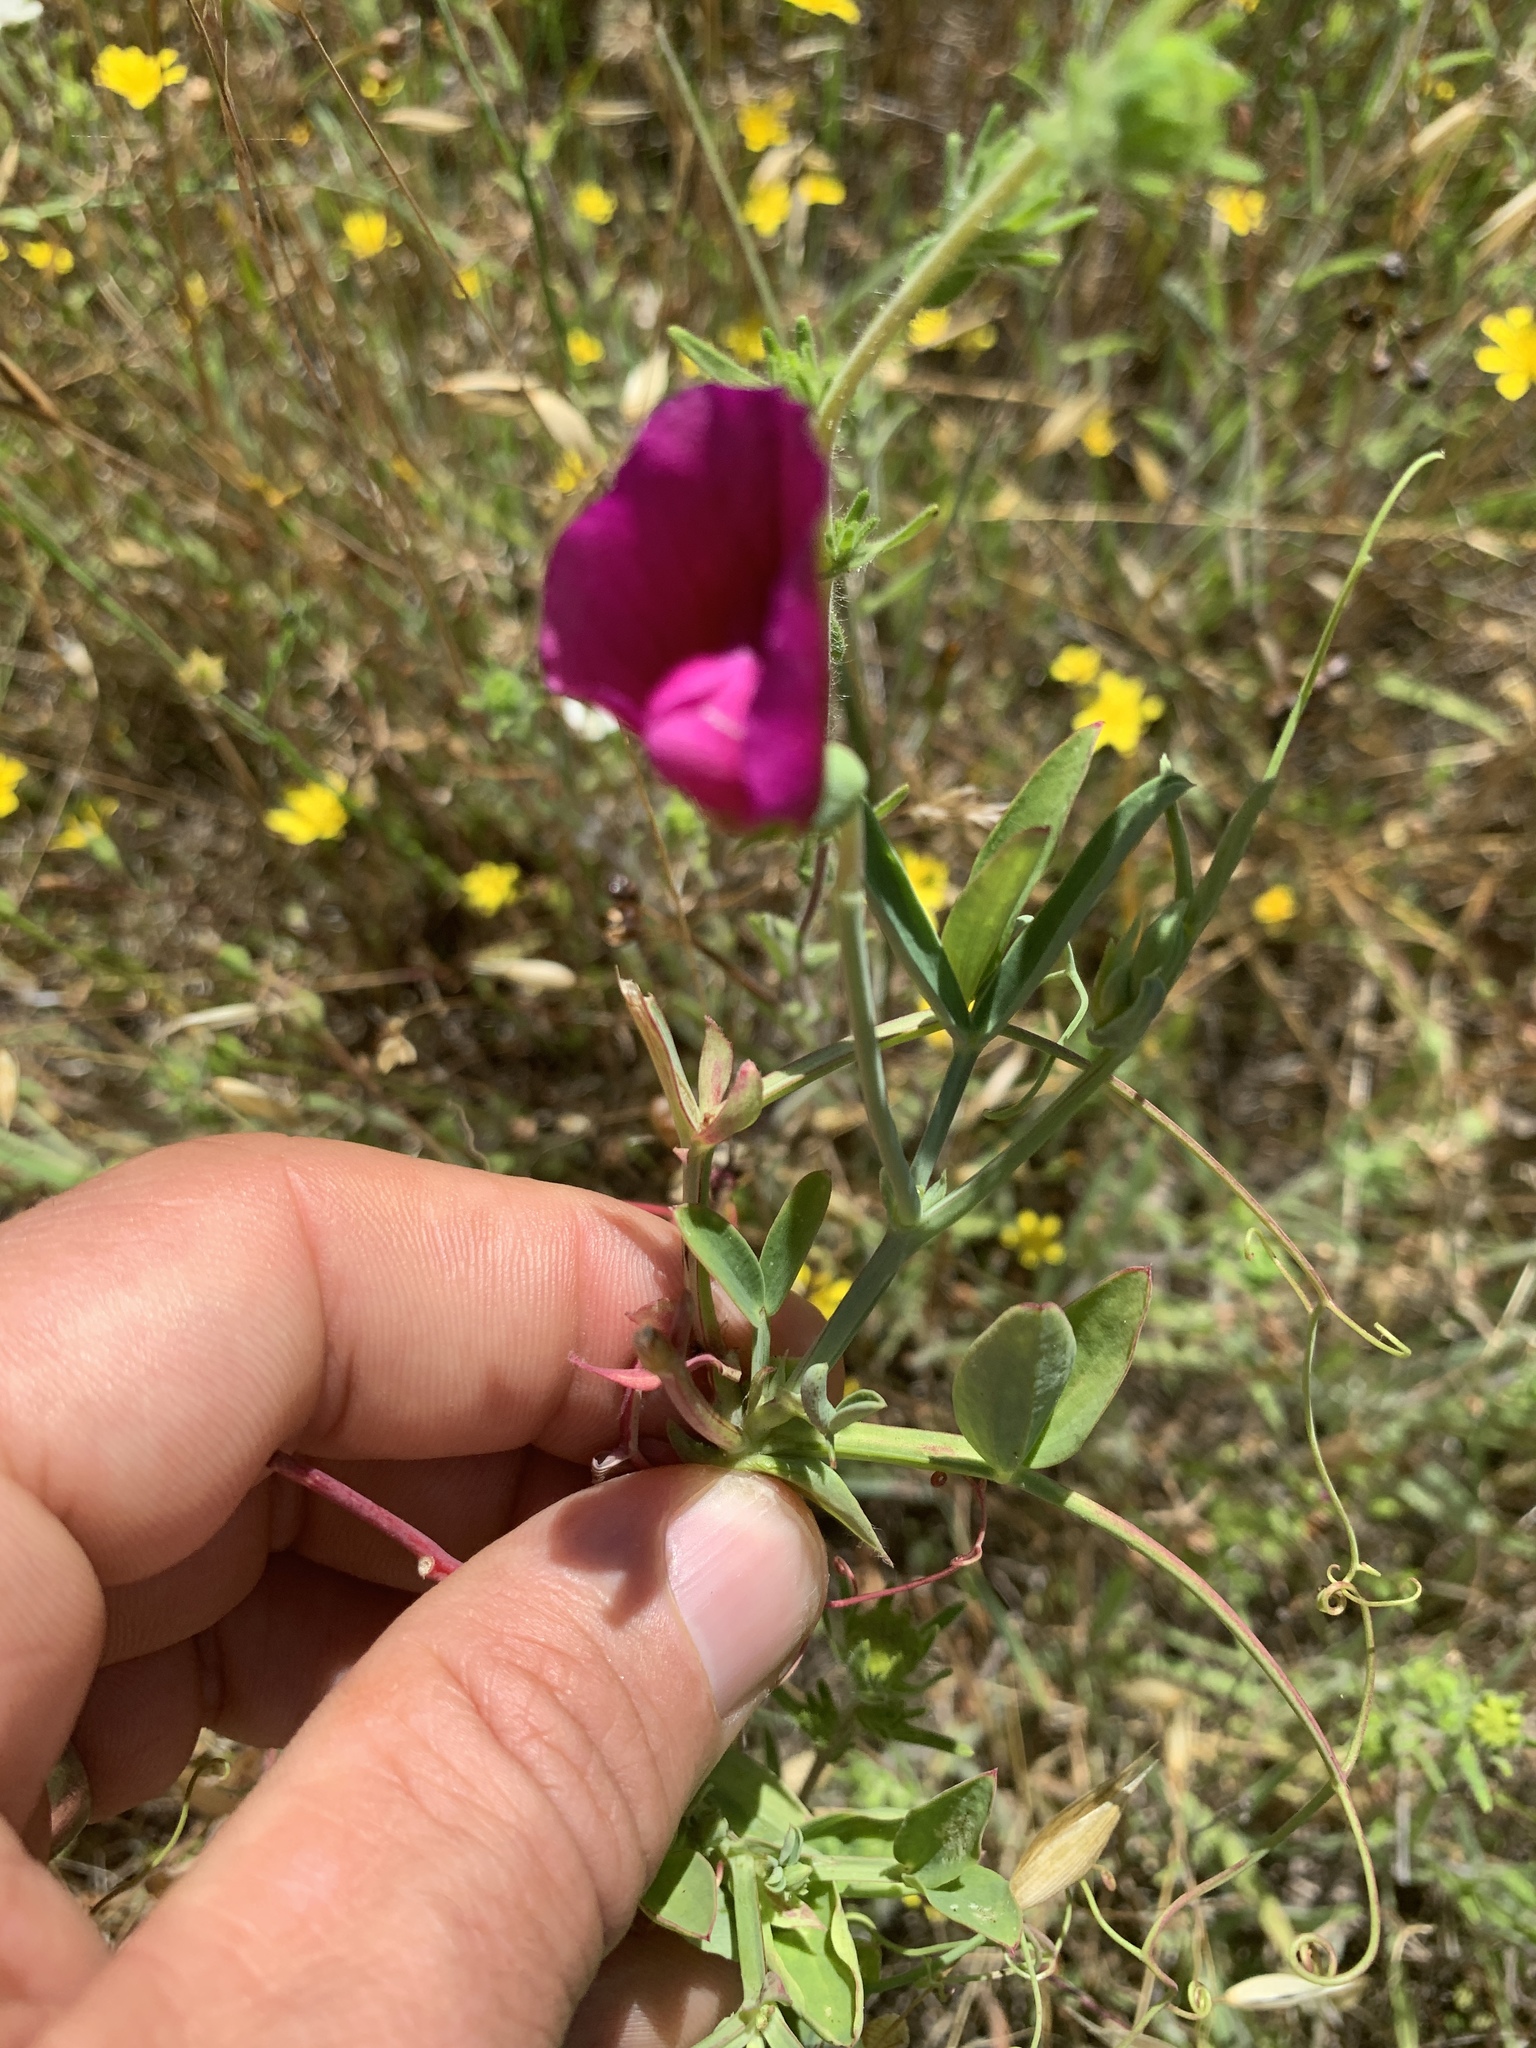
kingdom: Plantae
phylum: Tracheophyta
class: Magnoliopsida
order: Fabales
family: Fabaceae
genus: Lathyrus
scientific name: Lathyrus tingitanus
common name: Tangier pea
